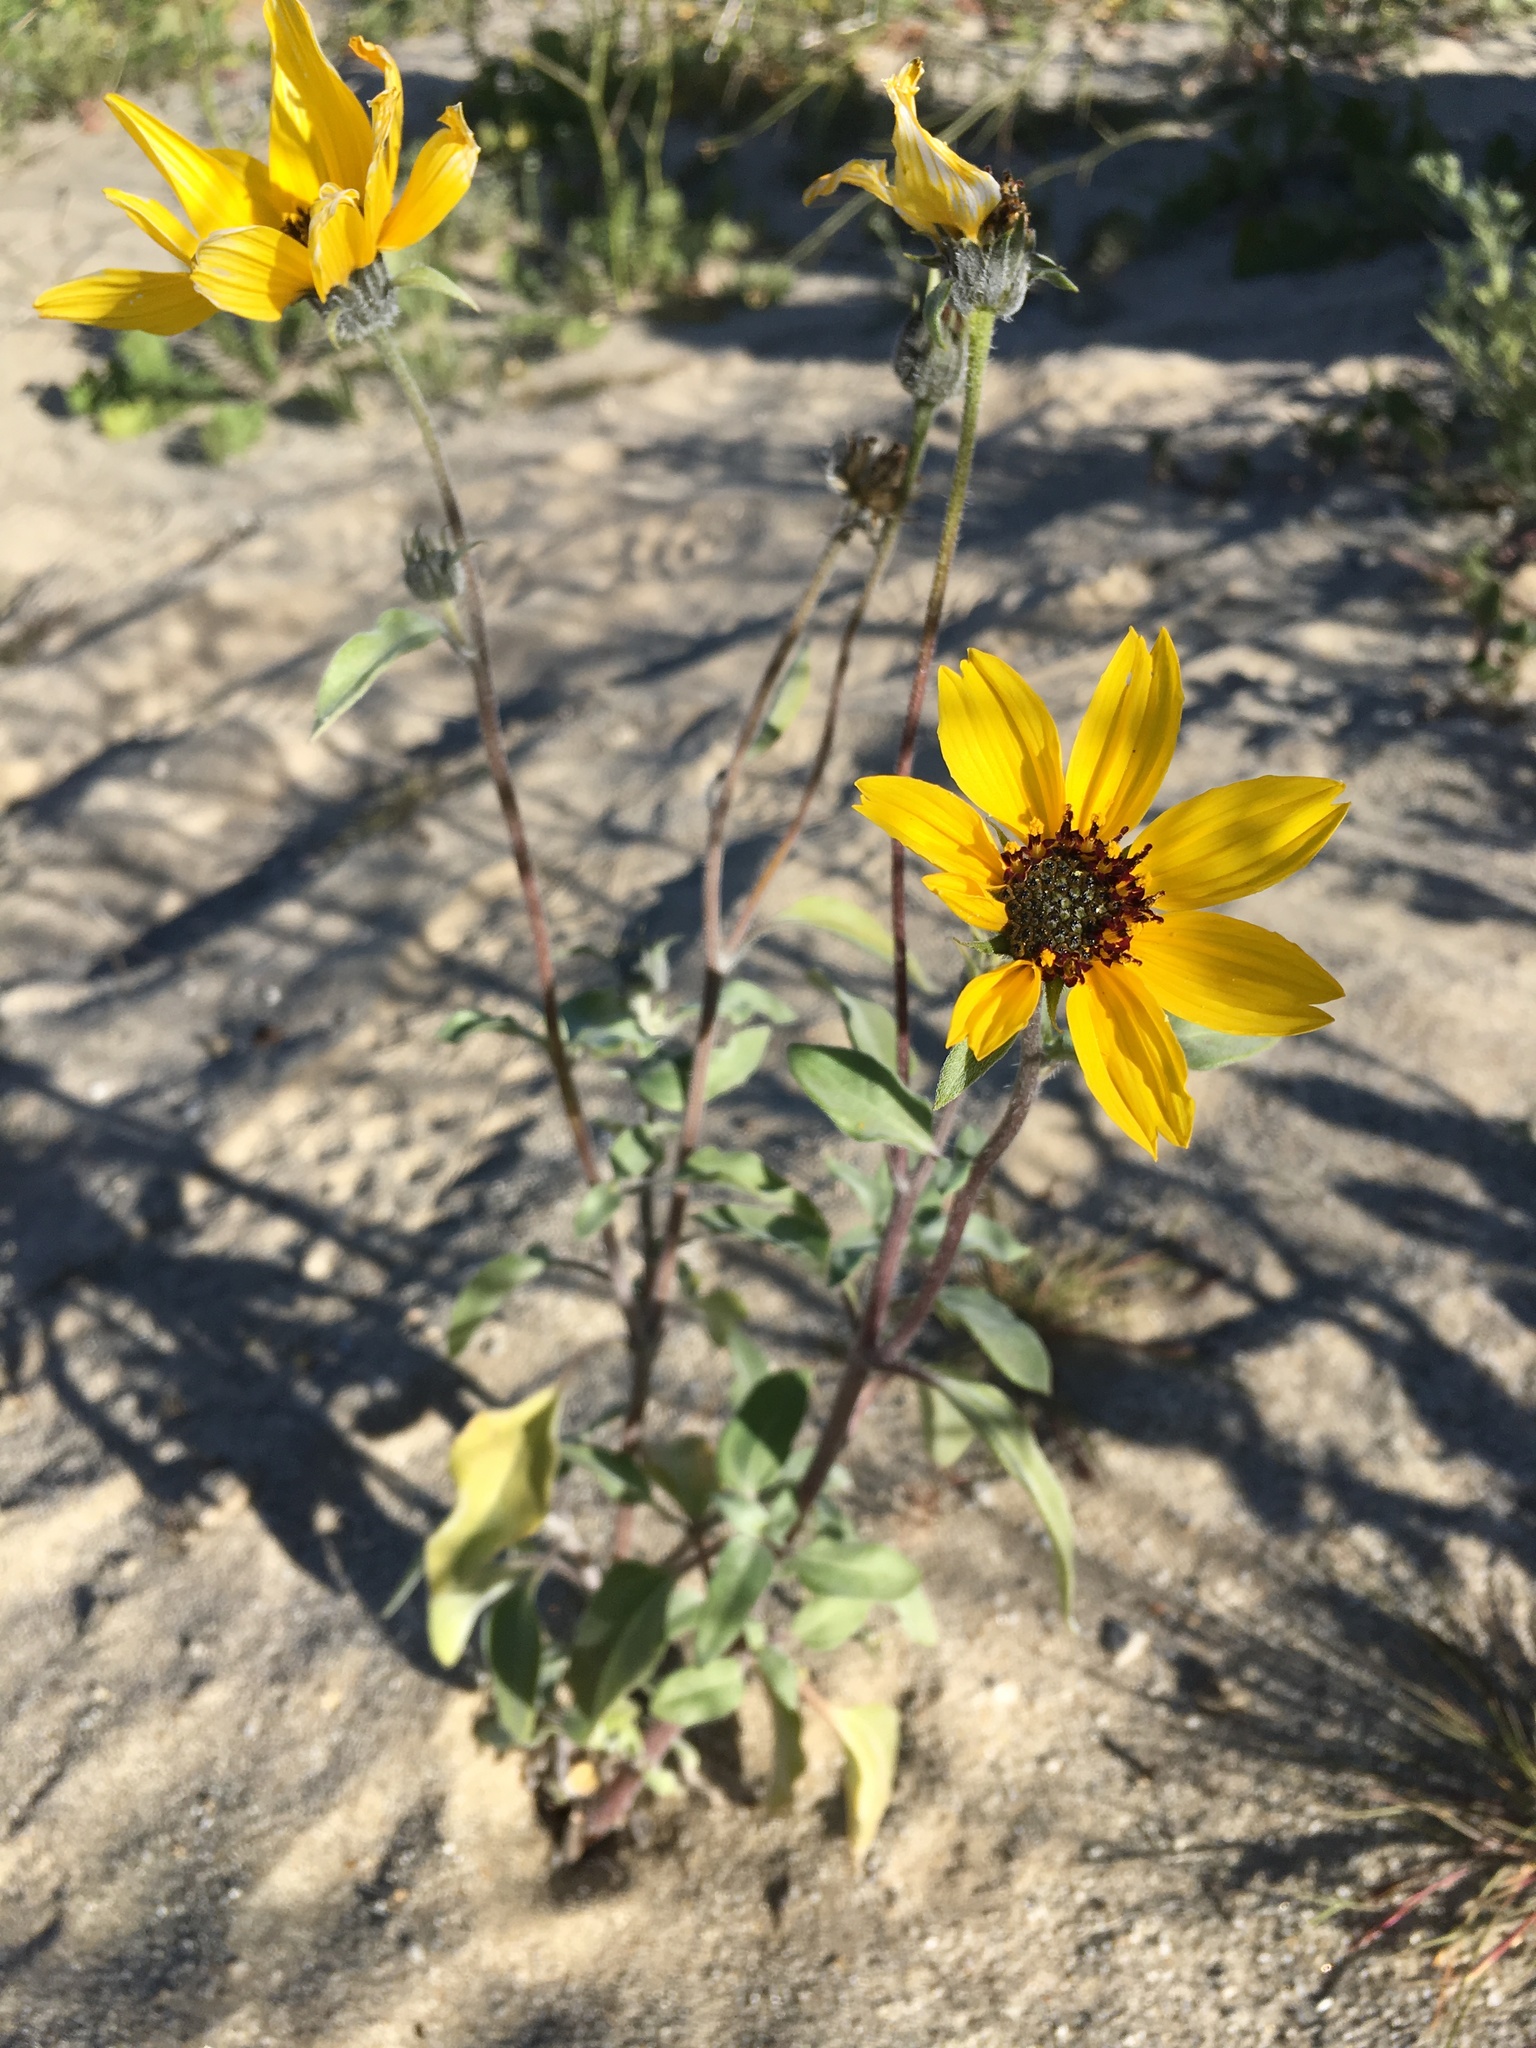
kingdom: Plantae
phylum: Tracheophyta
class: Magnoliopsida
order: Asterales
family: Asteraceae
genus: Helianthus
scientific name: Helianthus petiolaris
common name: Lesser sunflower
